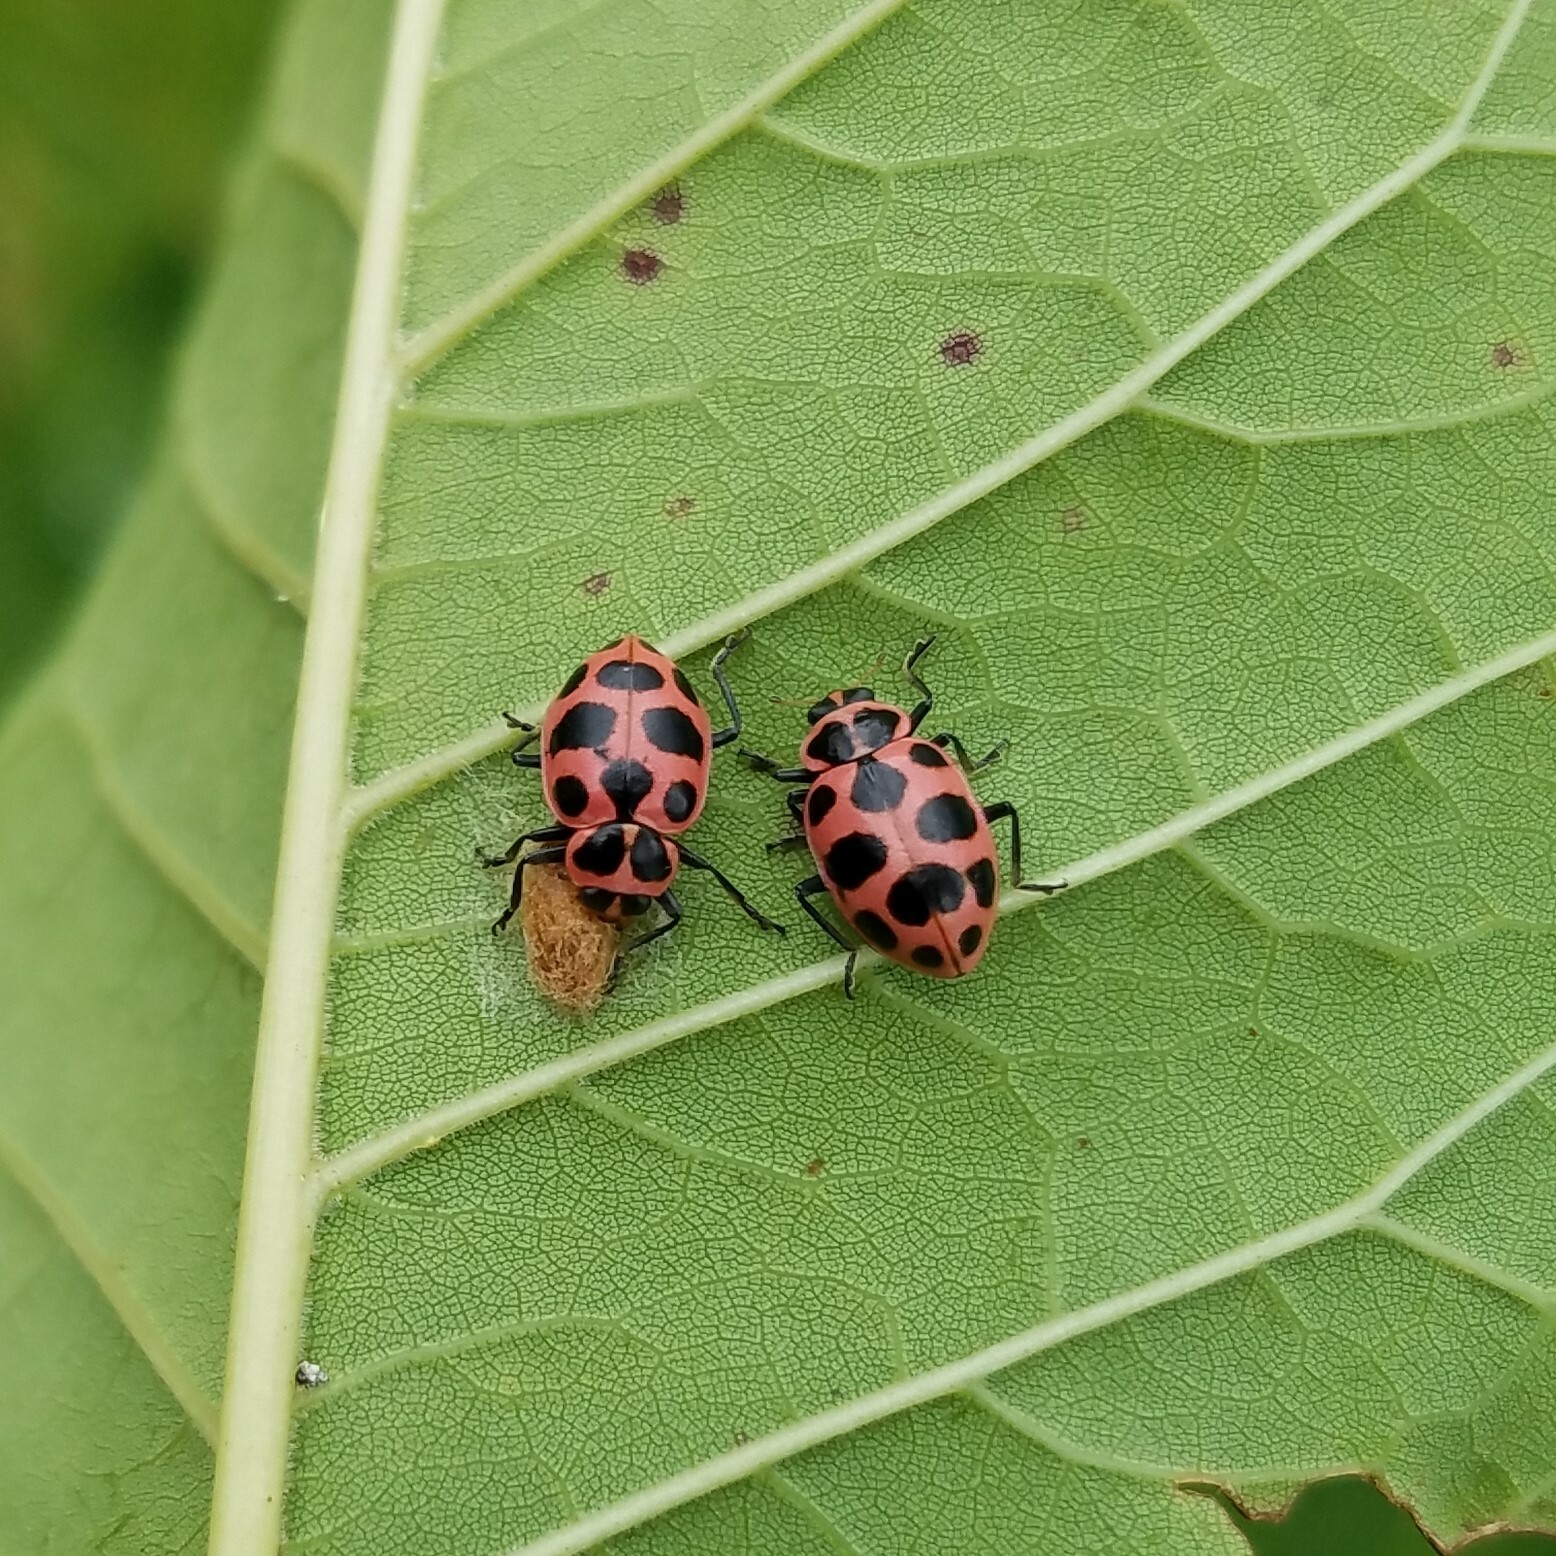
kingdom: Animalia
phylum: Arthropoda
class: Insecta
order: Coleoptera
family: Coccinellidae
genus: Coleomegilla
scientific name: Coleomegilla maculata
